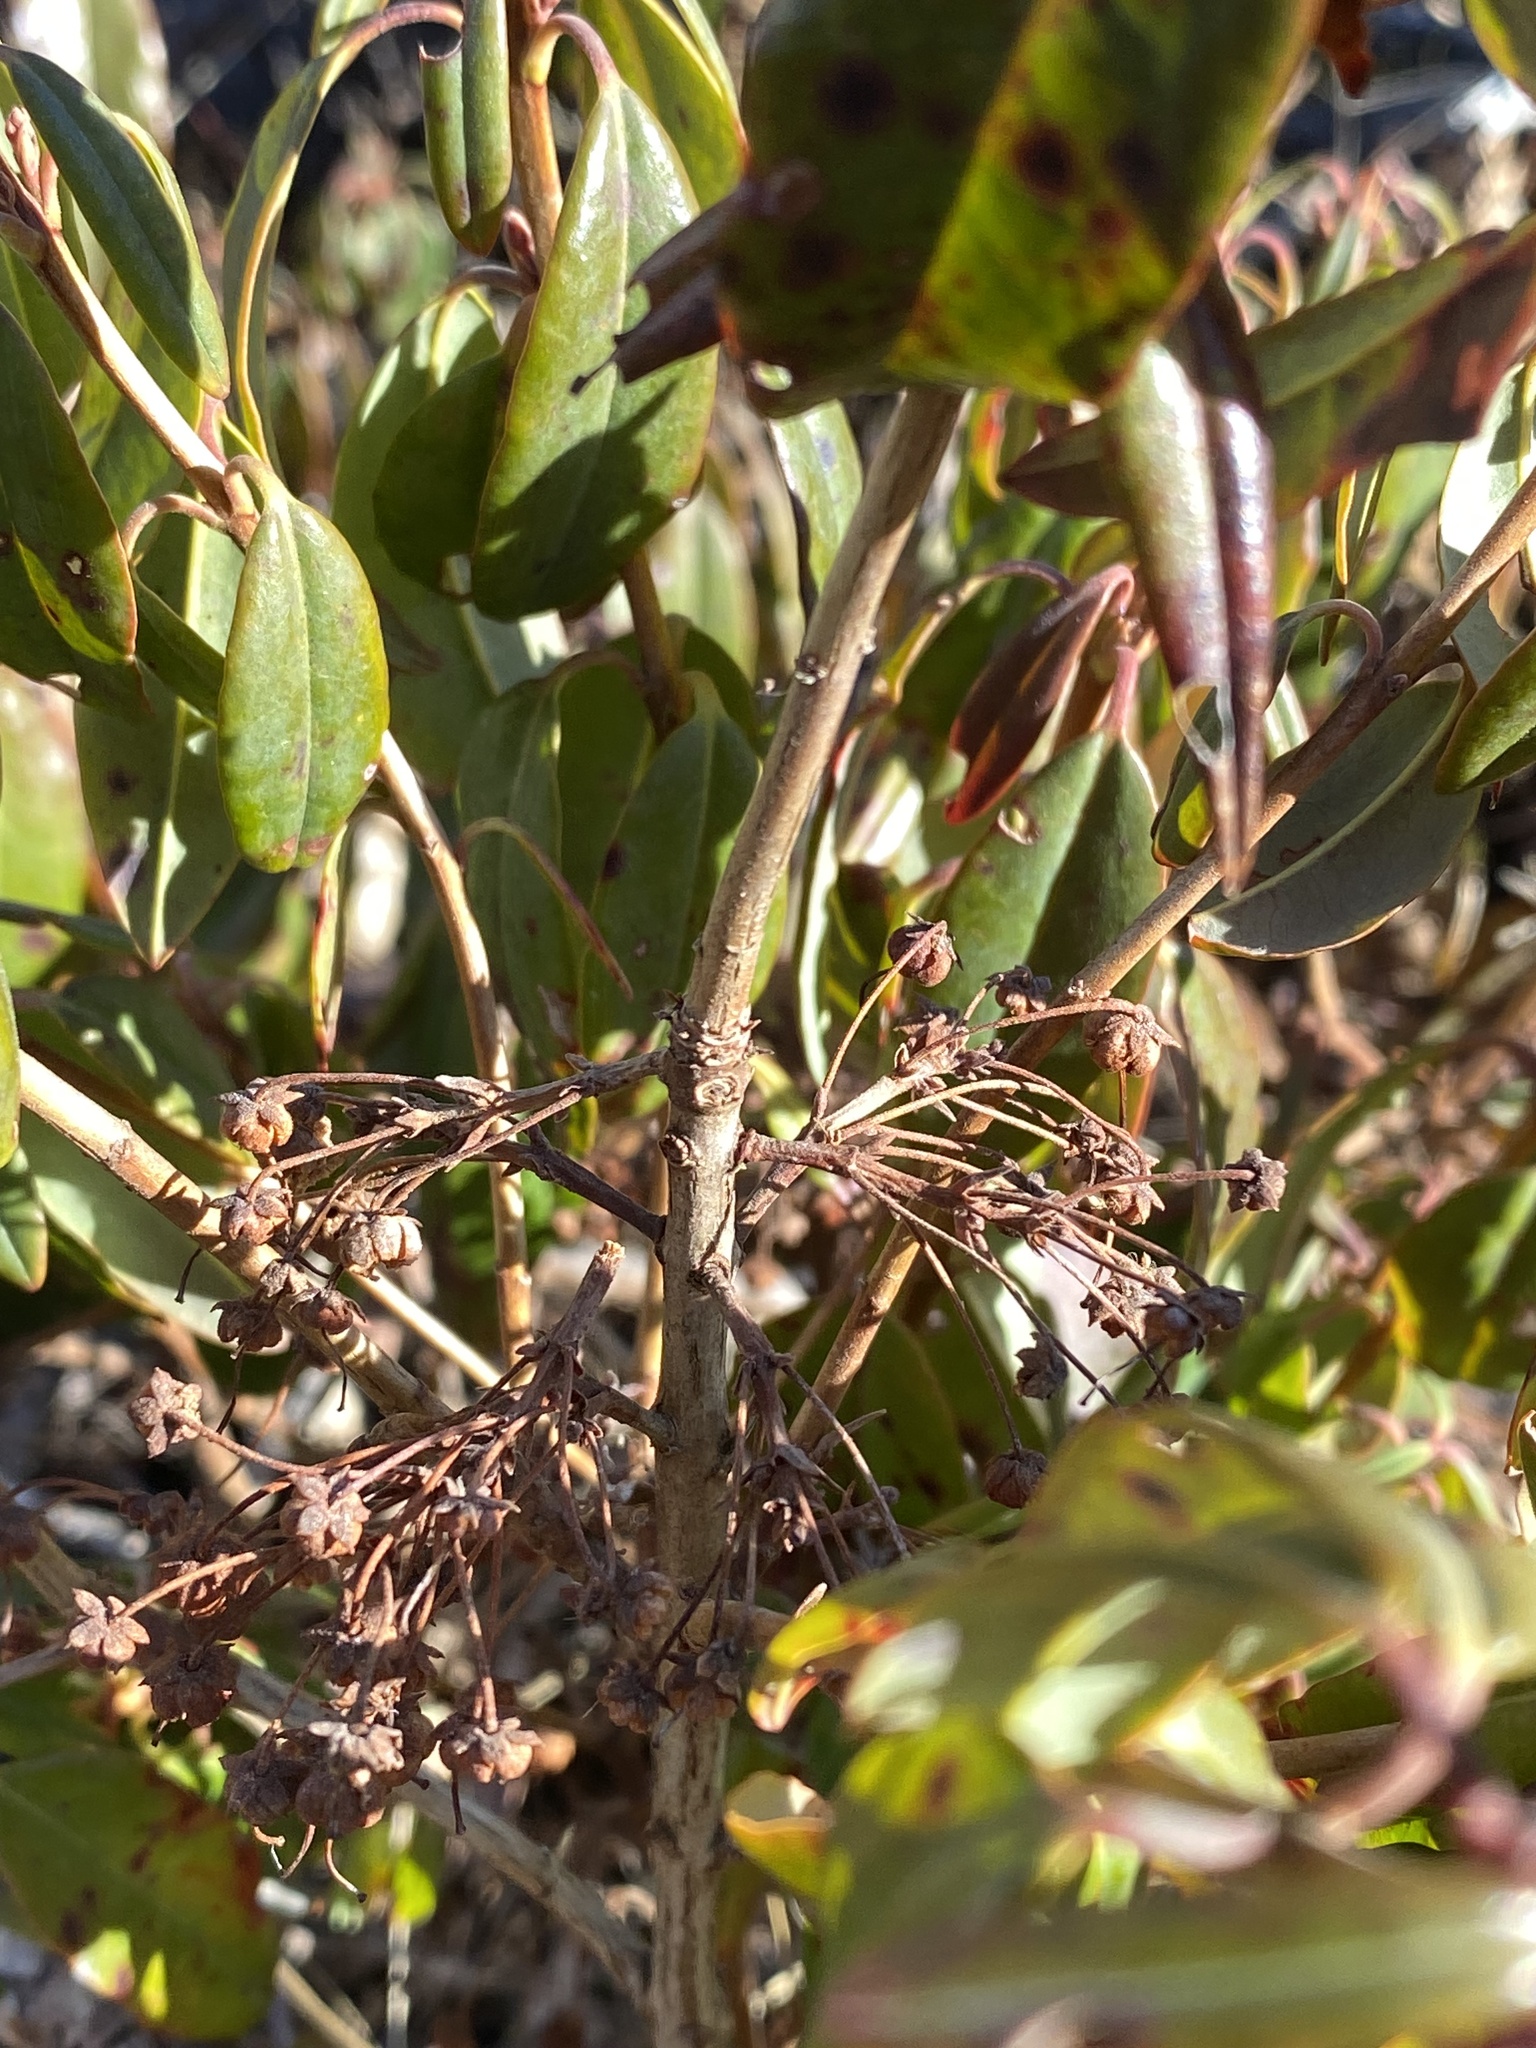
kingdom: Plantae
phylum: Tracheophyta
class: Magnoliopsida
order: Ericales
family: Ericaceae
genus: Kalmia
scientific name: Kalmia angustifolia
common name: Sheep-laurel
